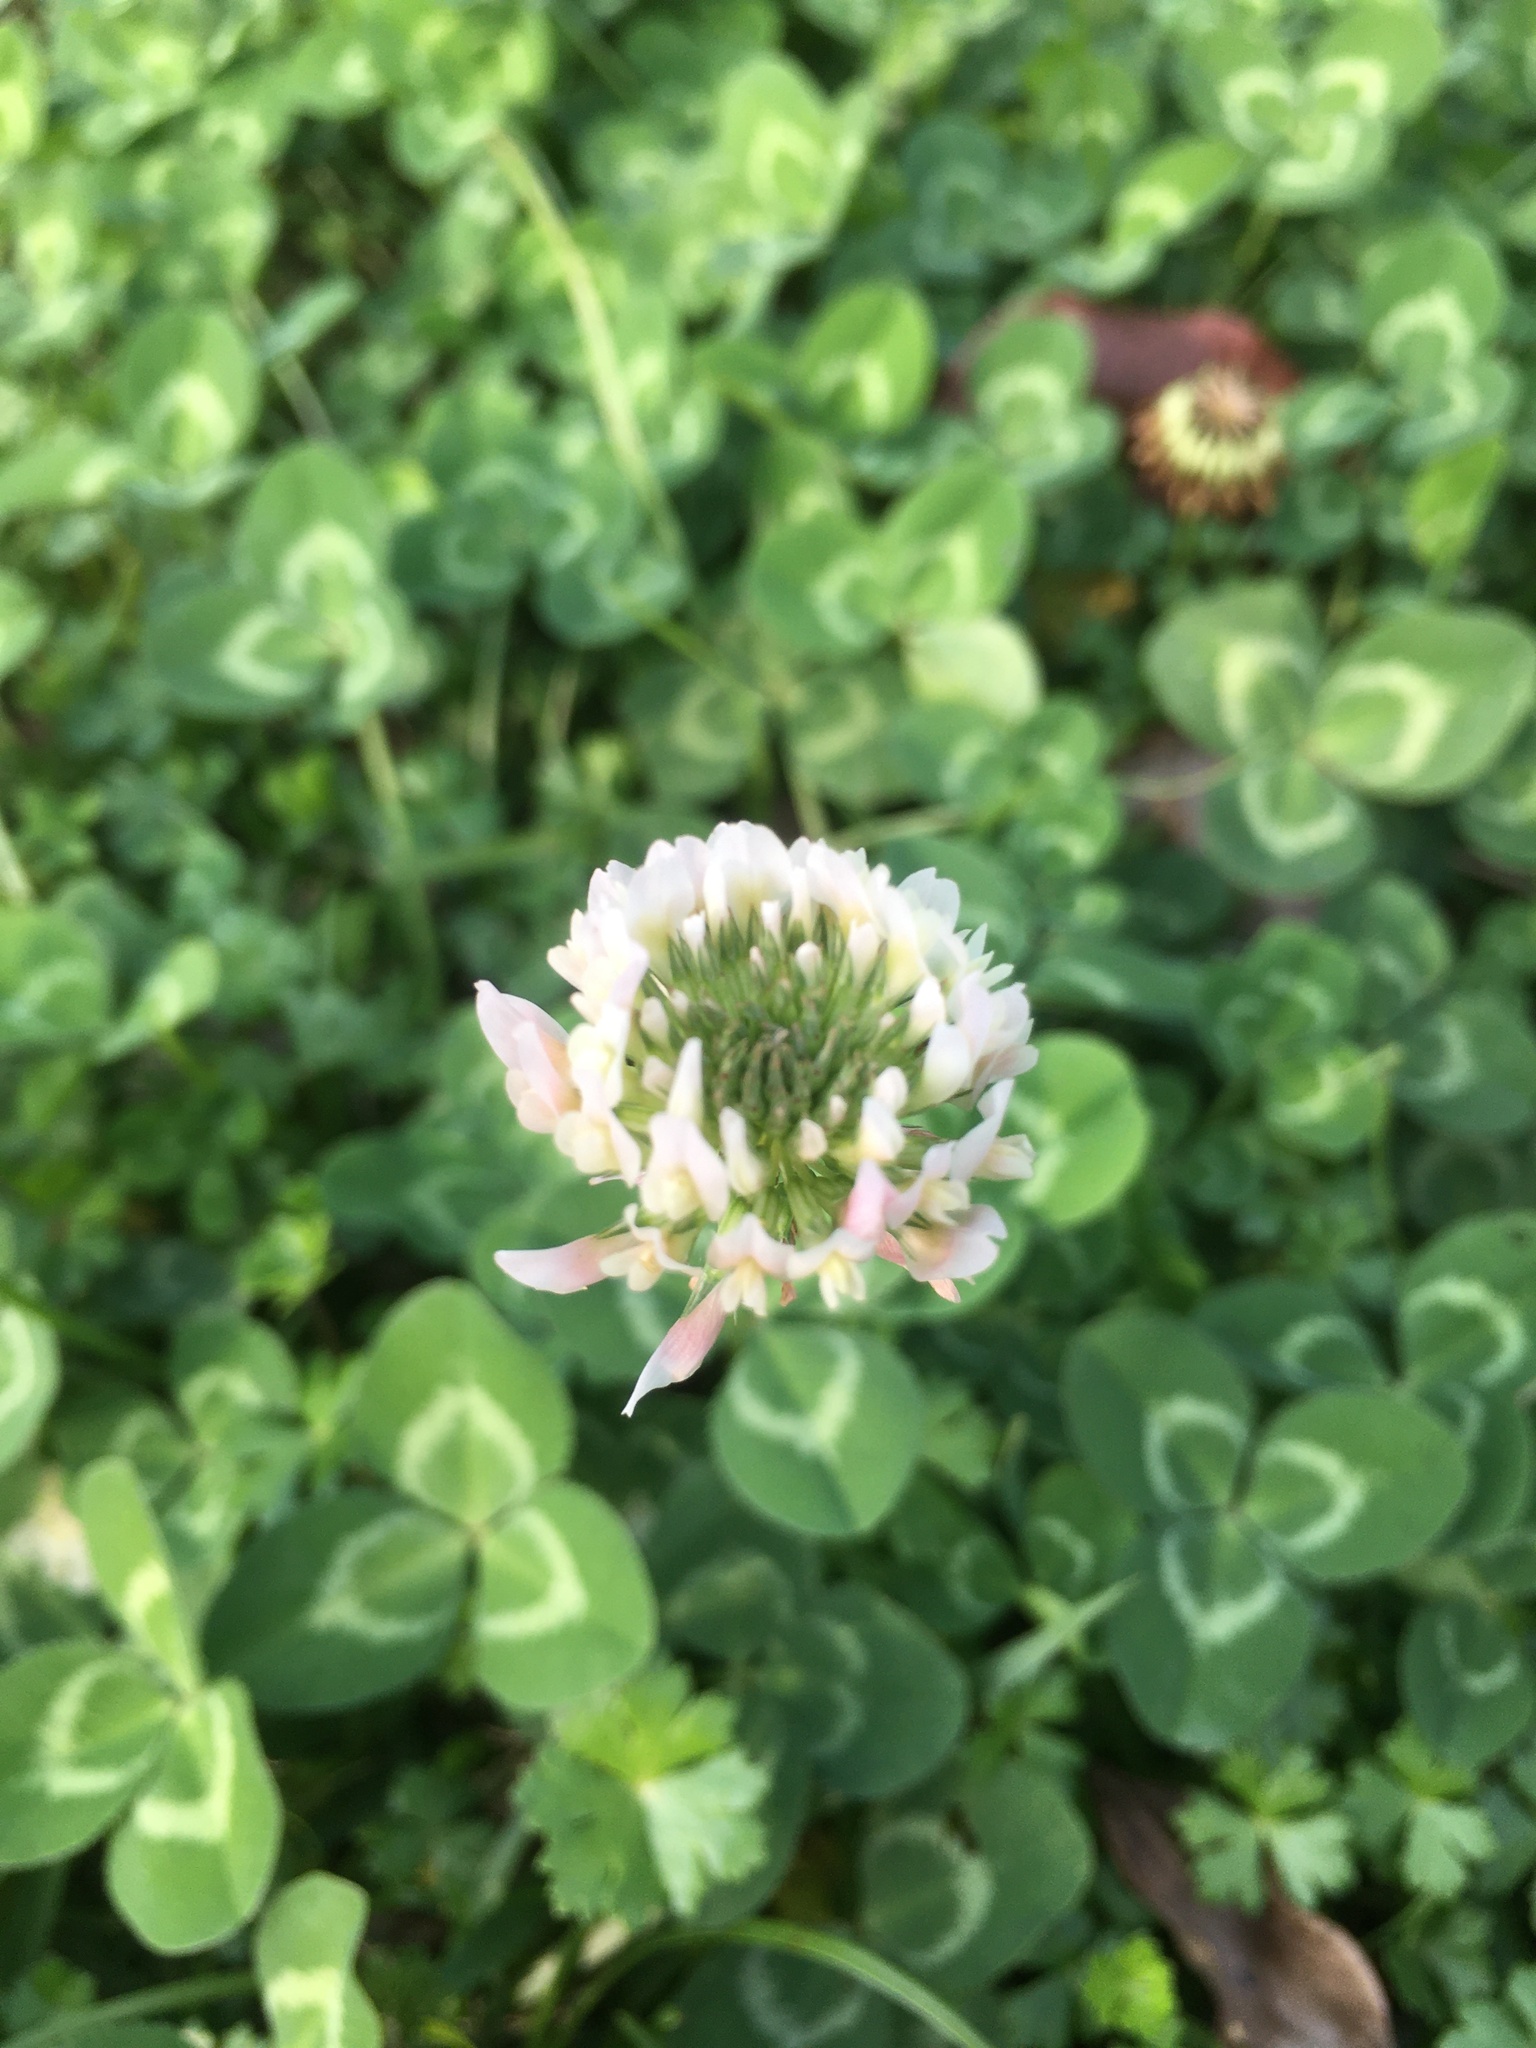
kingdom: Plantae
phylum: Tracheophyta
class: Magnoliopsida
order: Fabales
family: Fabaceae
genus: Trifolium
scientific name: Trifolium repens
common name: White clover
